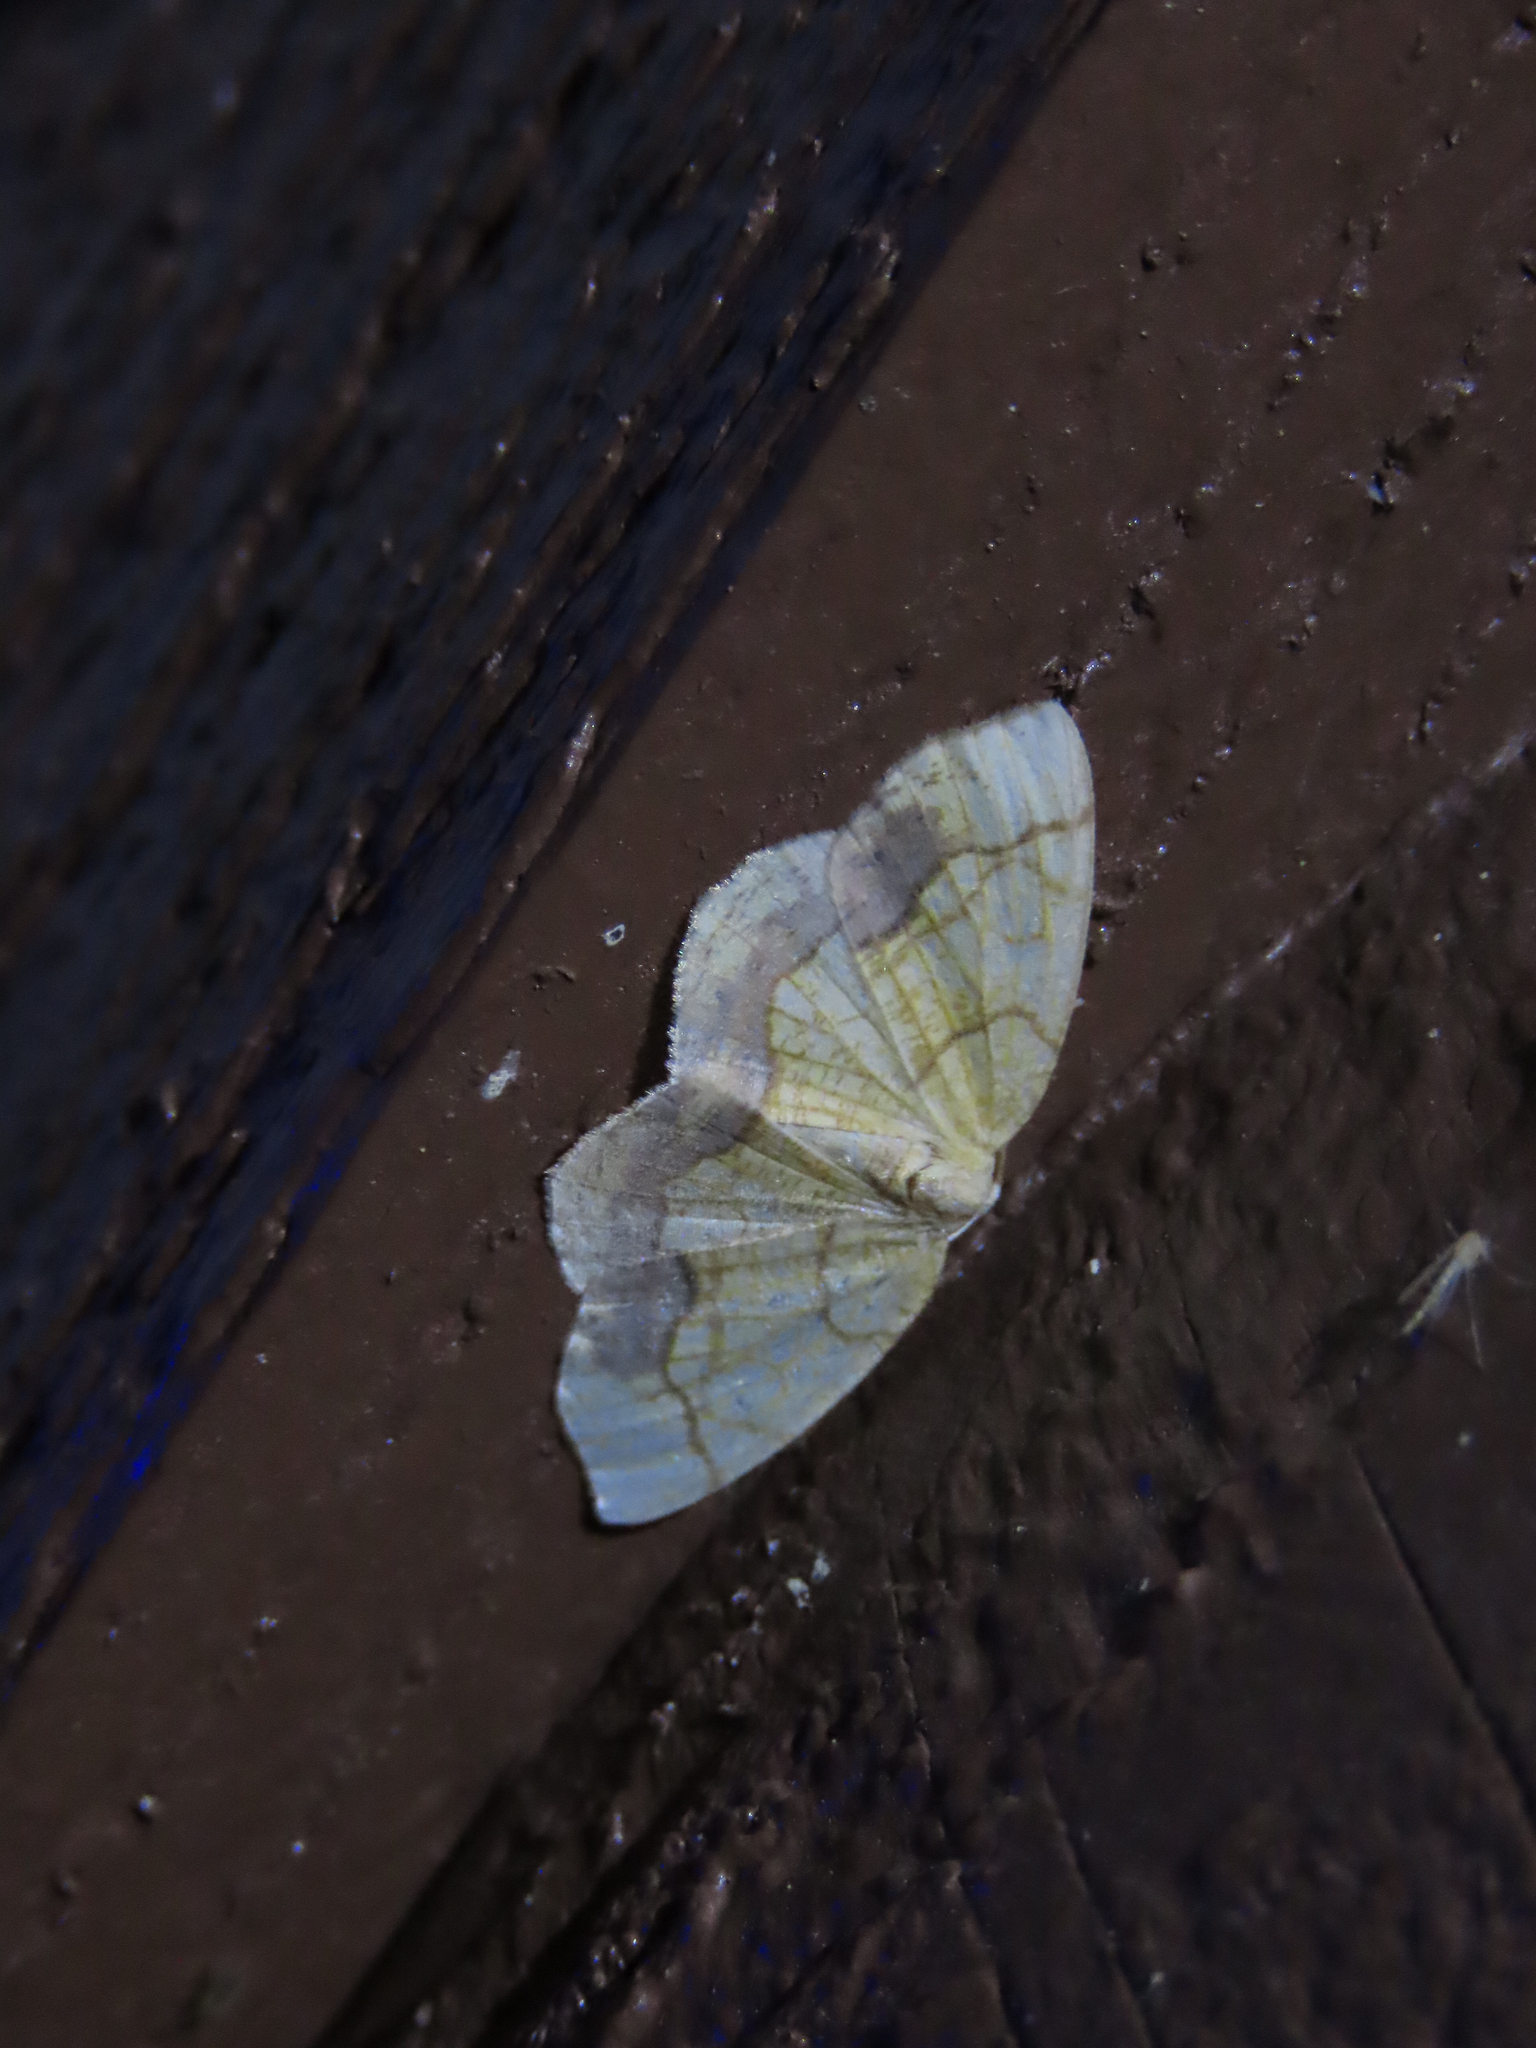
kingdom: Animalia
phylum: Arthropoda
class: Insecta
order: Lepidoptera
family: Geometridae
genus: Nematocampa
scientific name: Nematocampa resistaria
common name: Horned spanworm moth
